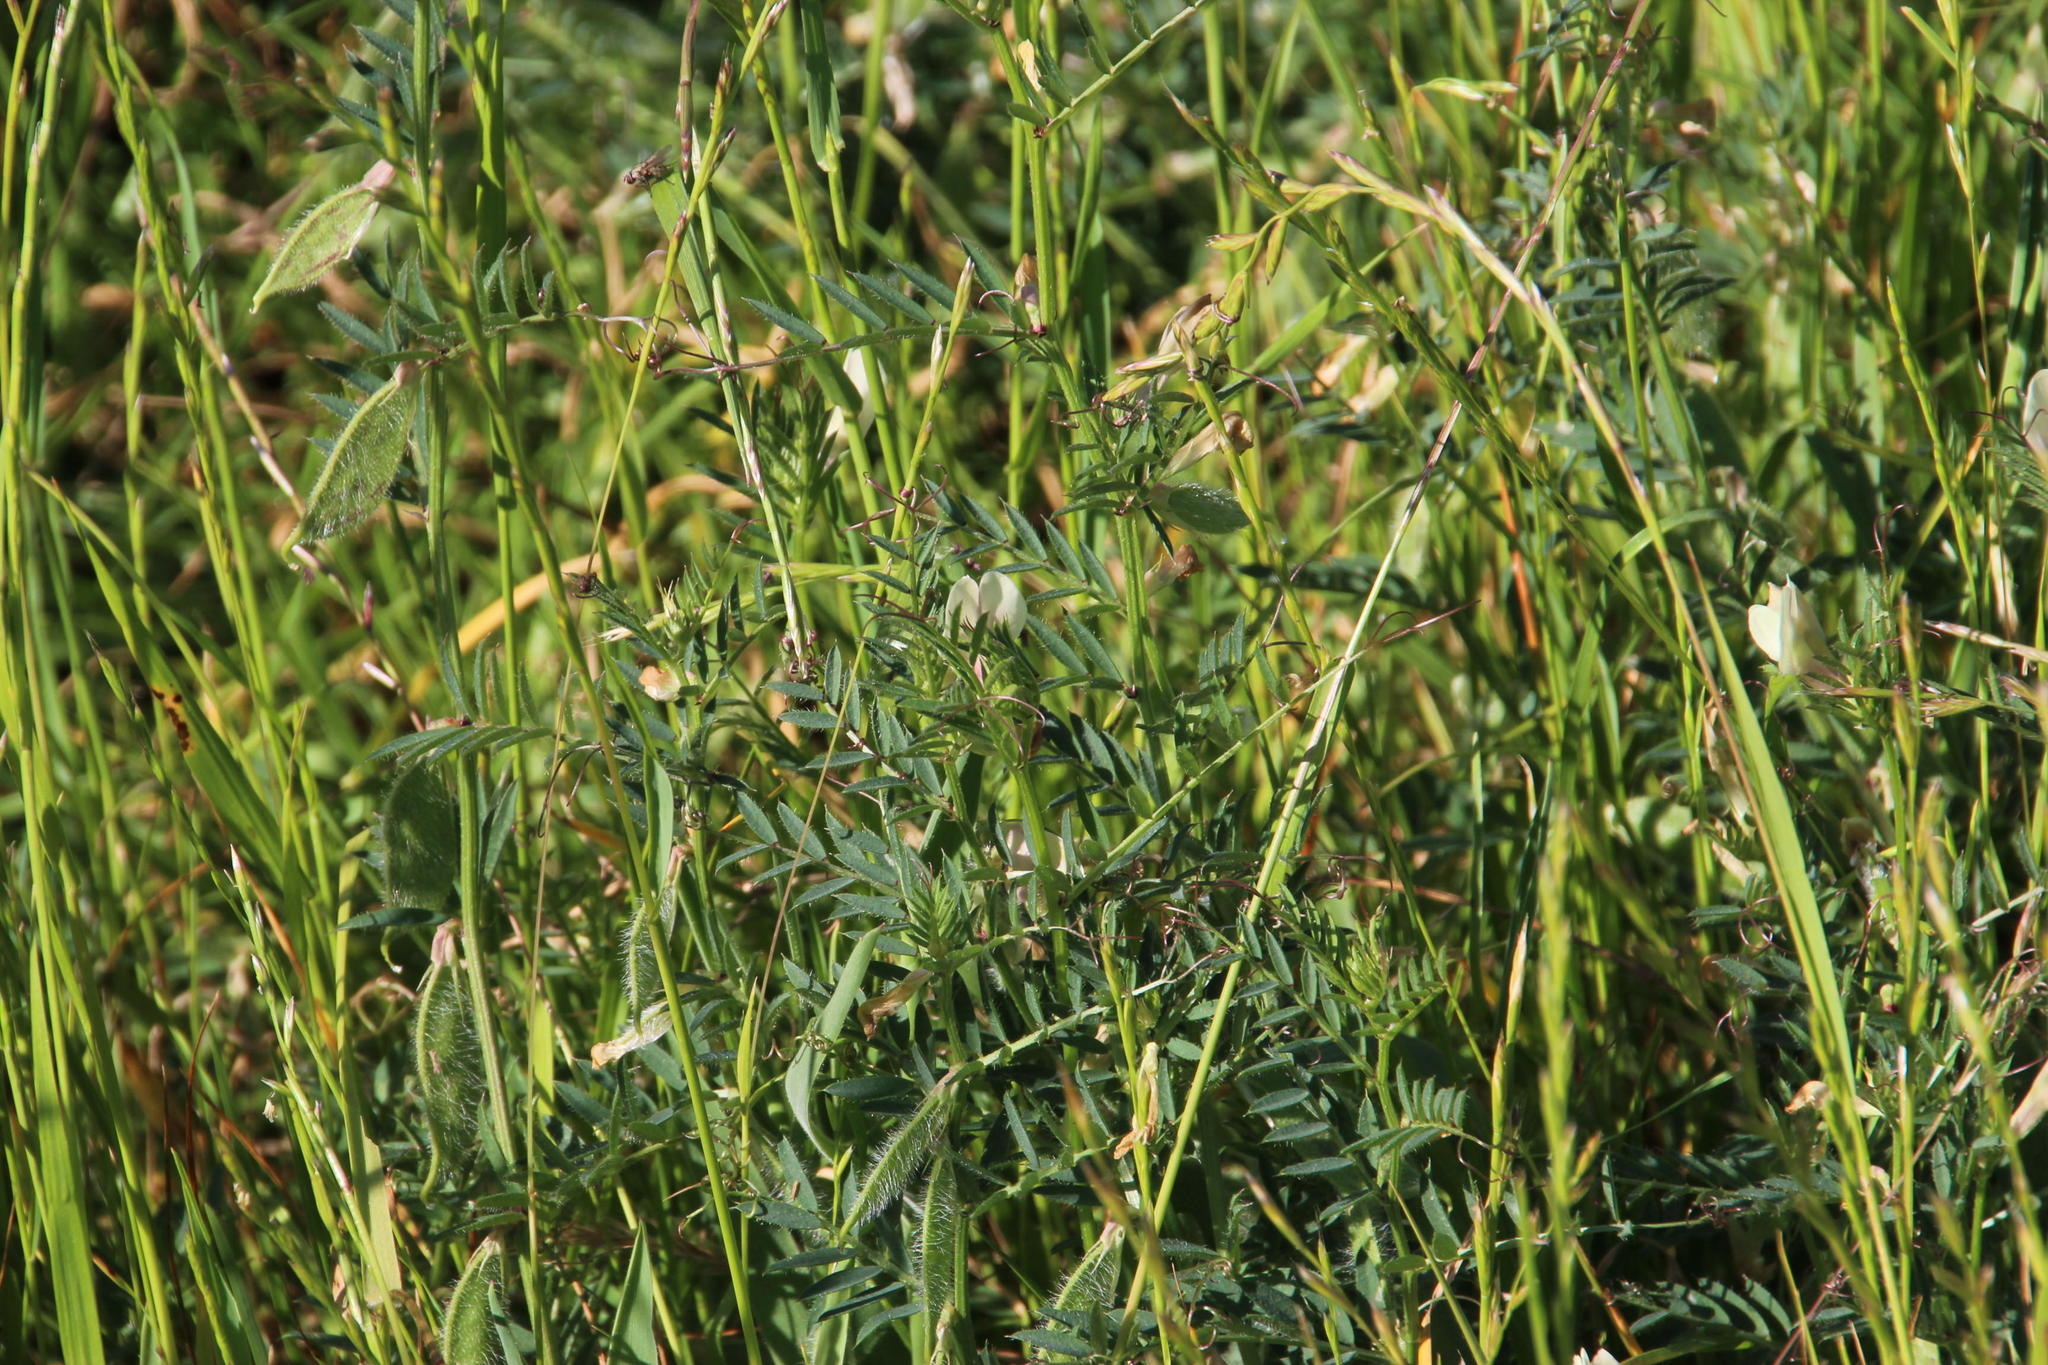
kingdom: Plantae
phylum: Tracheophyta
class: Magnoliopsida
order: Fabales
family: Fabaceae
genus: Vicia
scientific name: Vicia lutea
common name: Smooth yellow vetch
